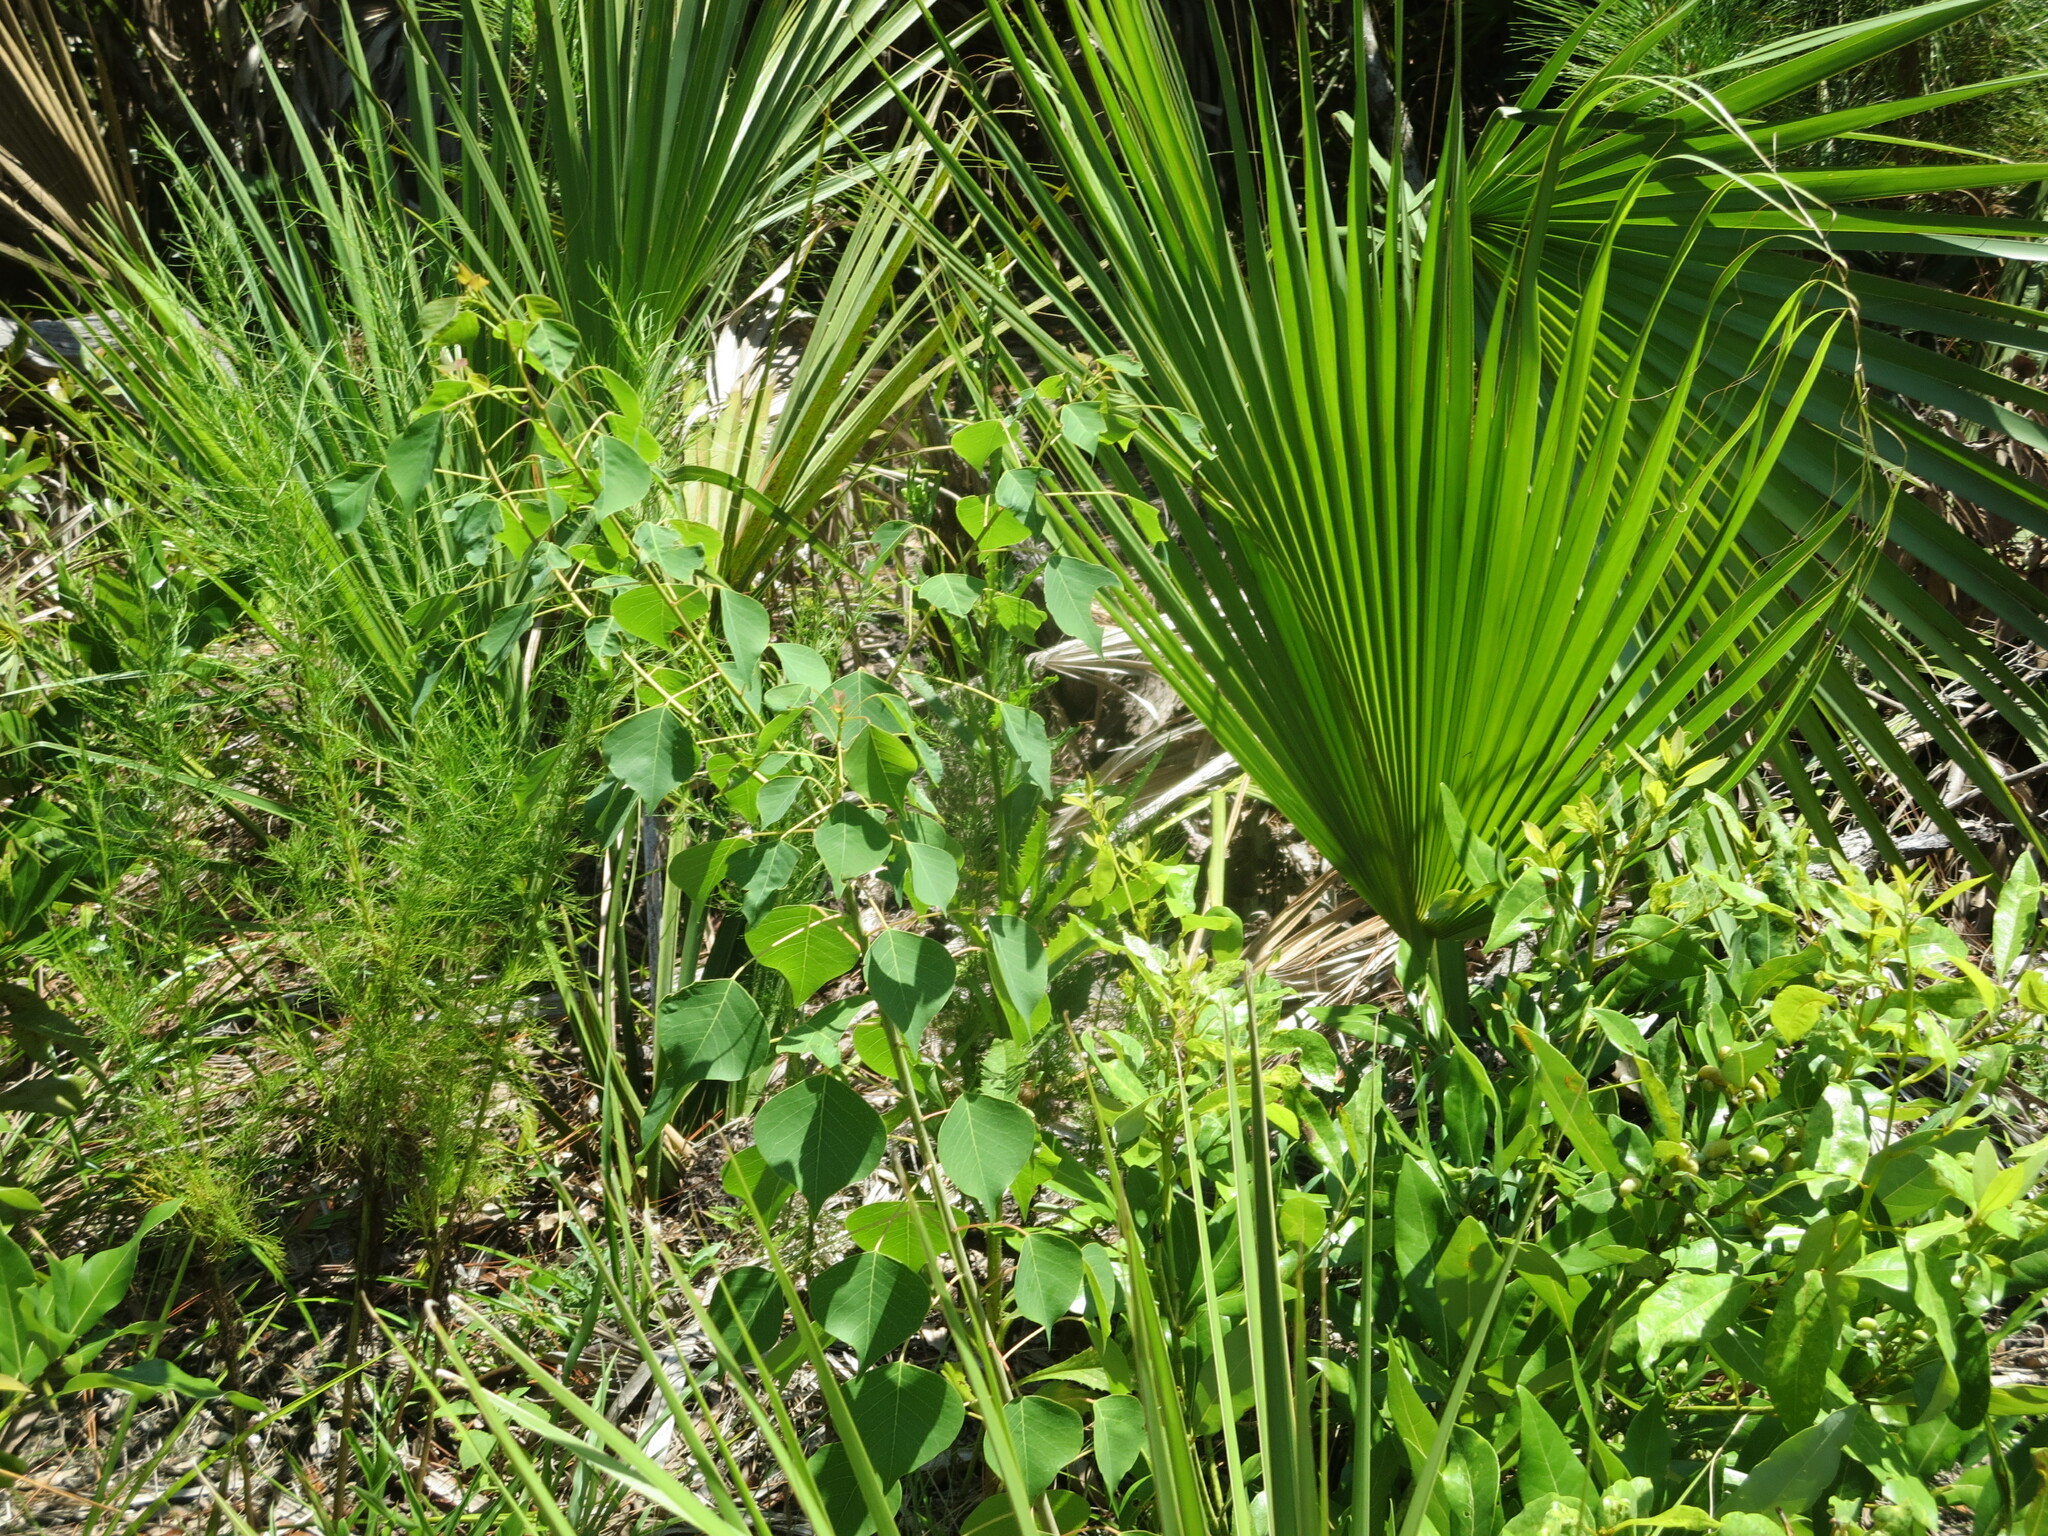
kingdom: Plantae
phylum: Tracheophyta
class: Magnoliopsida
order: Malpighiales
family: Euphorbiaceae
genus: Triadica
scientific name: Triadica sebifera
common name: Chinese tallow
